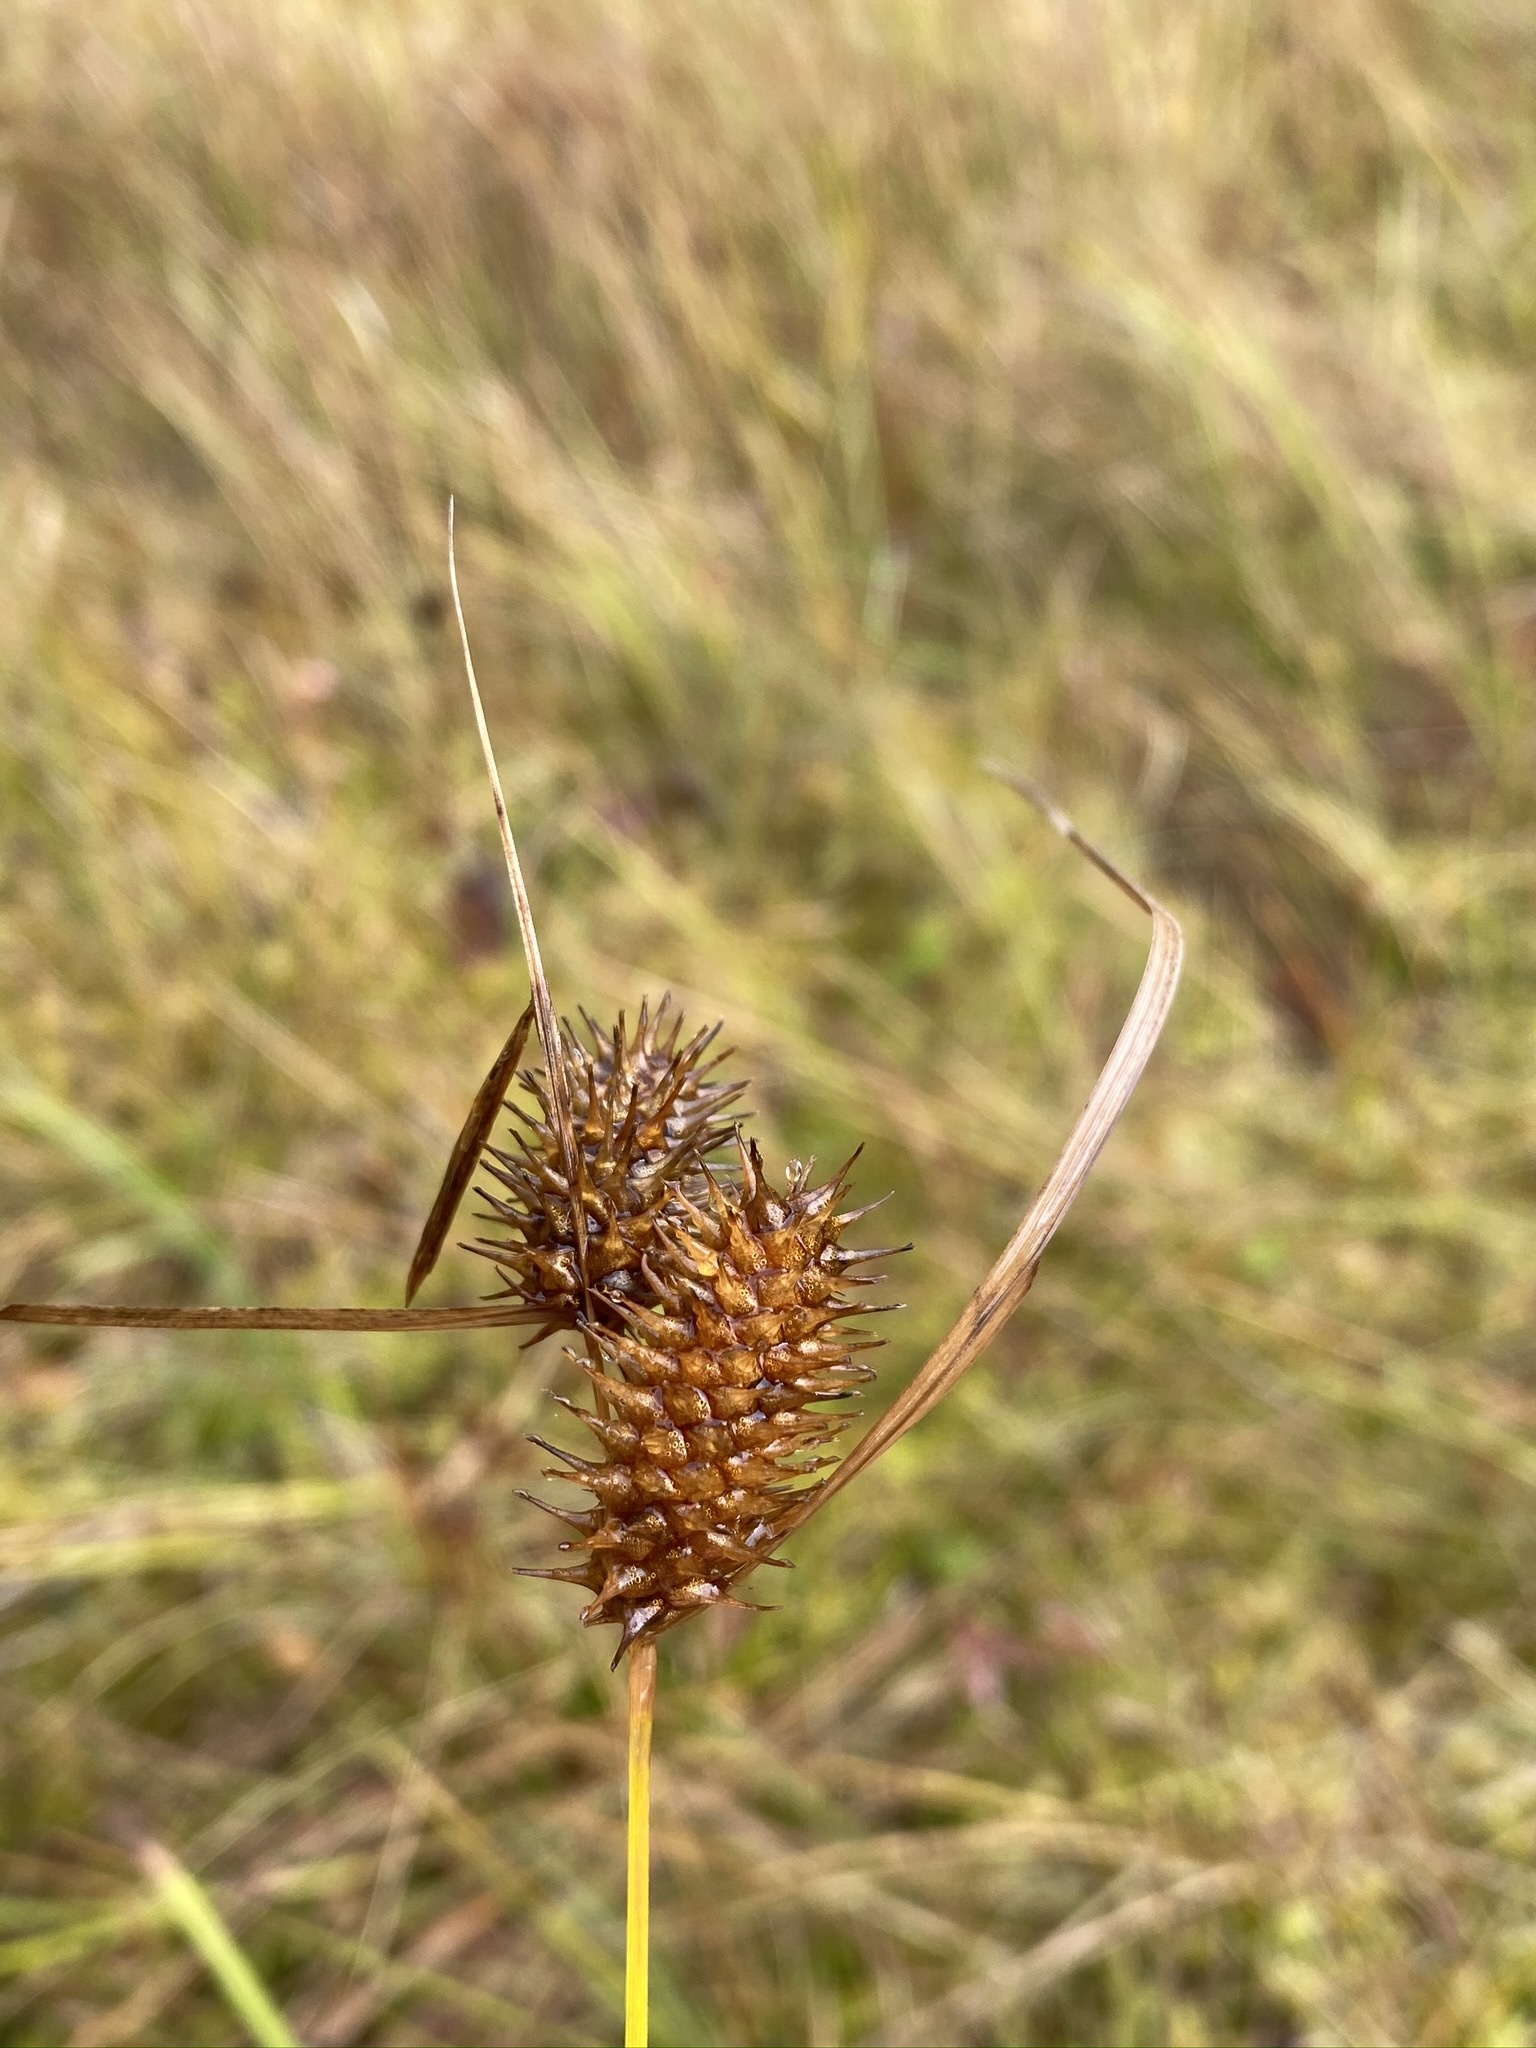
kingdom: Plantae
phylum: Tracheophyta
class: Liliopsida
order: Poales
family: Cyperaceae
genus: Carex
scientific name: Carex lurida
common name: Sallow sedge
